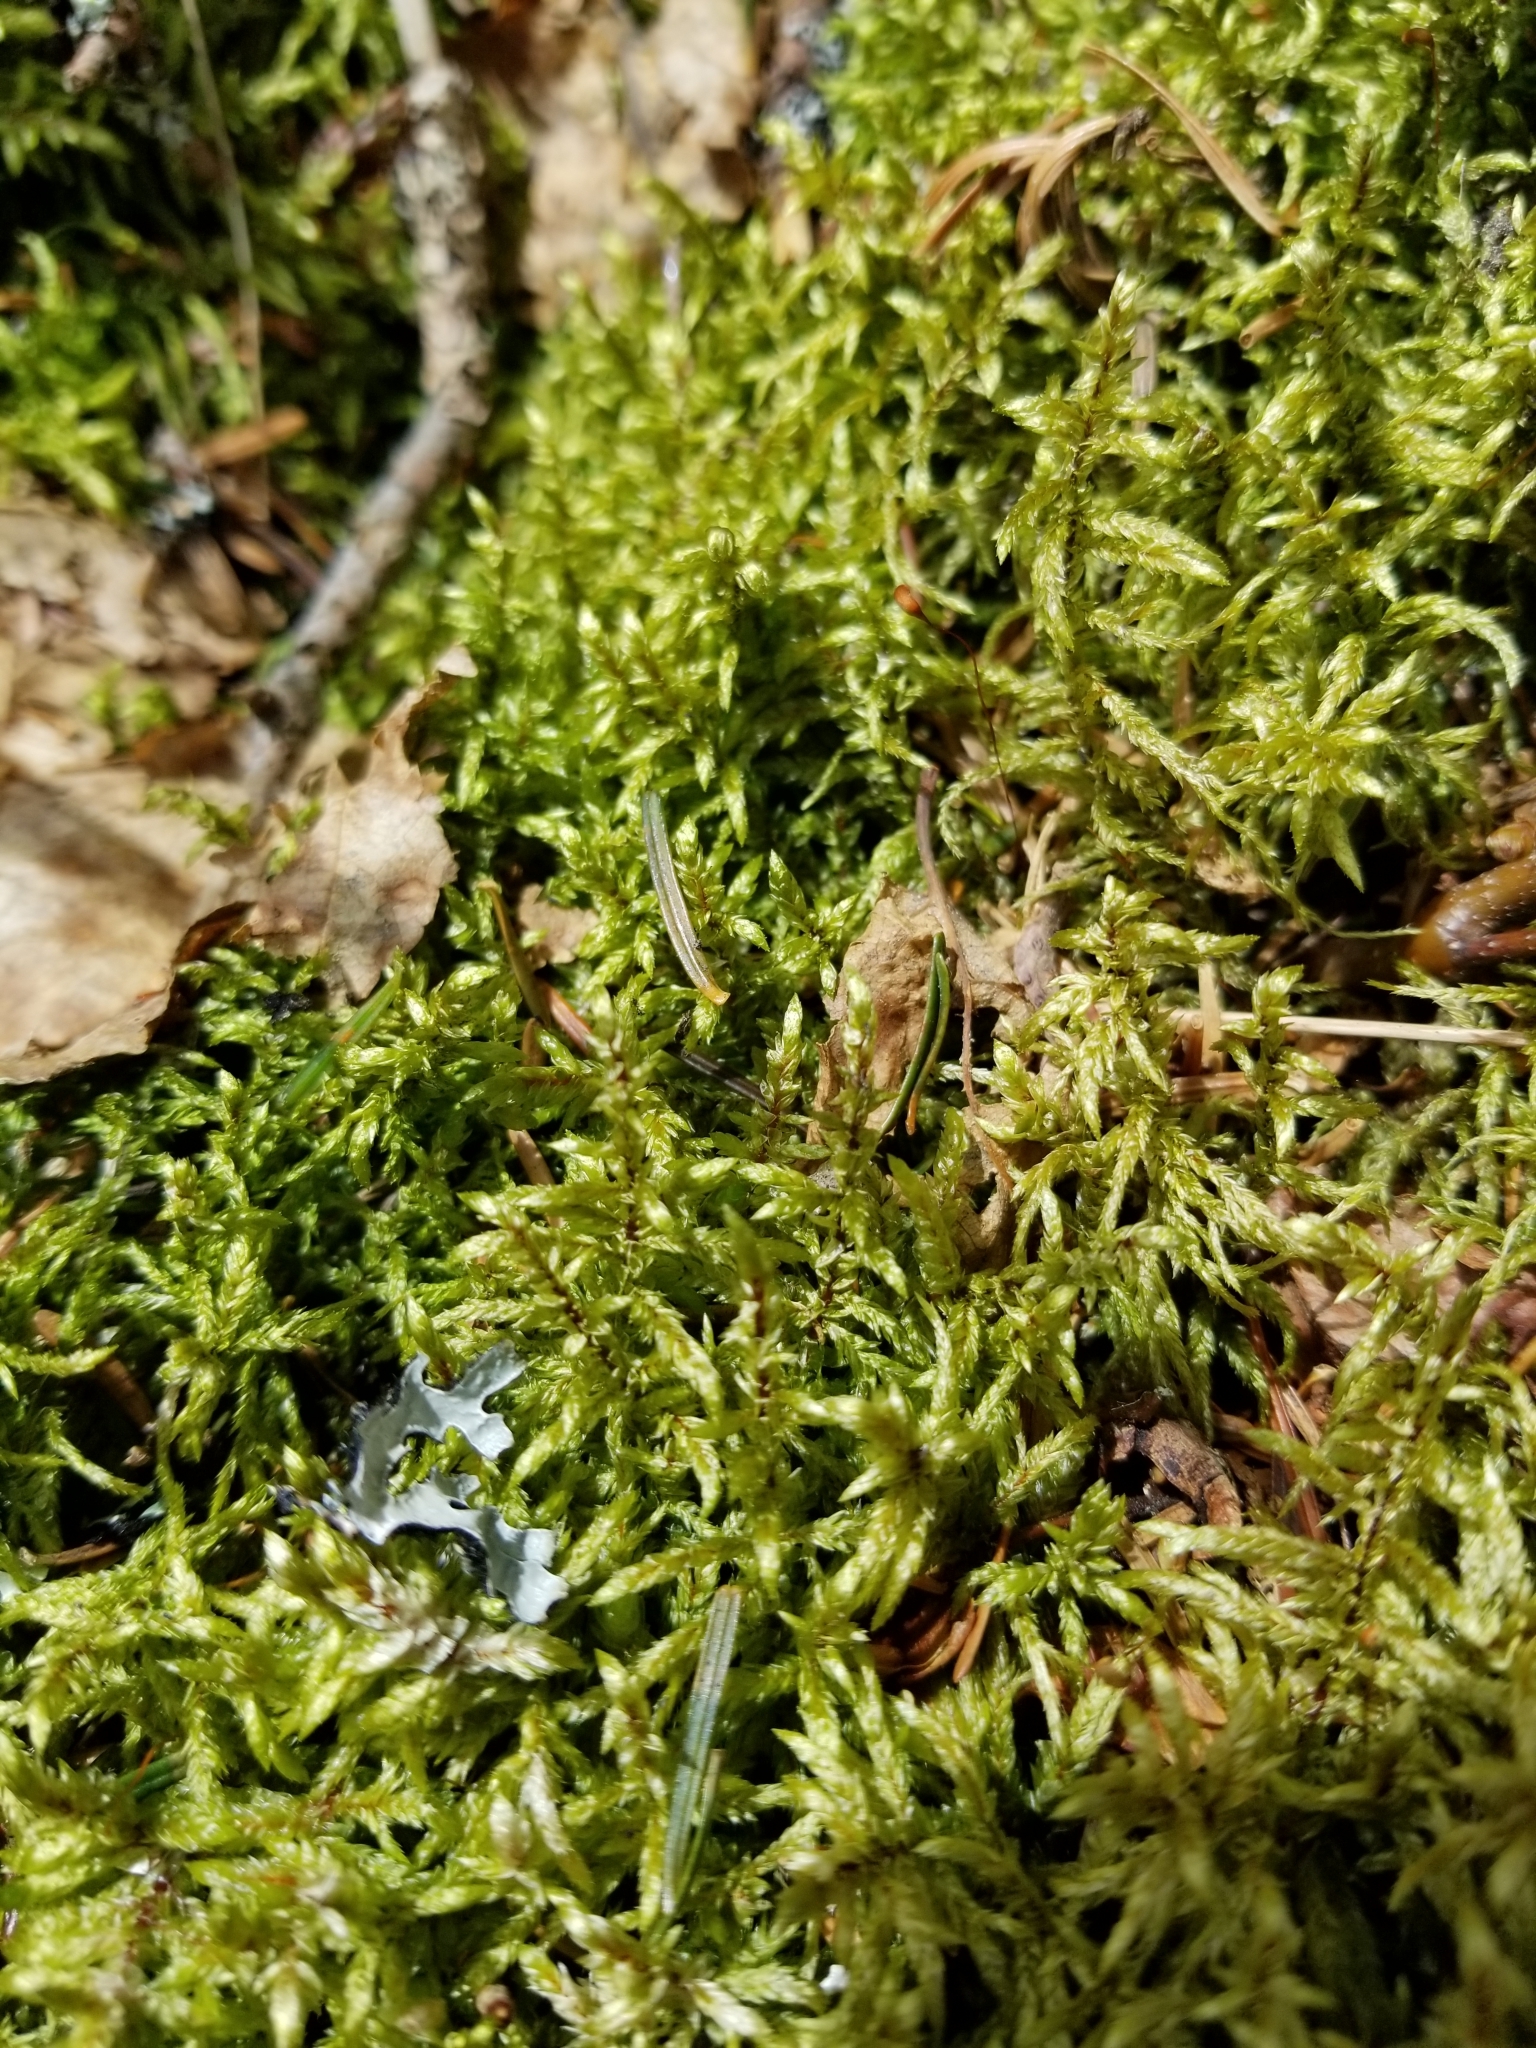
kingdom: Plantae
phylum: Bryophyta
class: Bryopsida
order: Hypnales
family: Hylocomiaceae
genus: Pleurozium
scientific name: Pleurozium schreberi
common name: Red-stemmed feather moss
